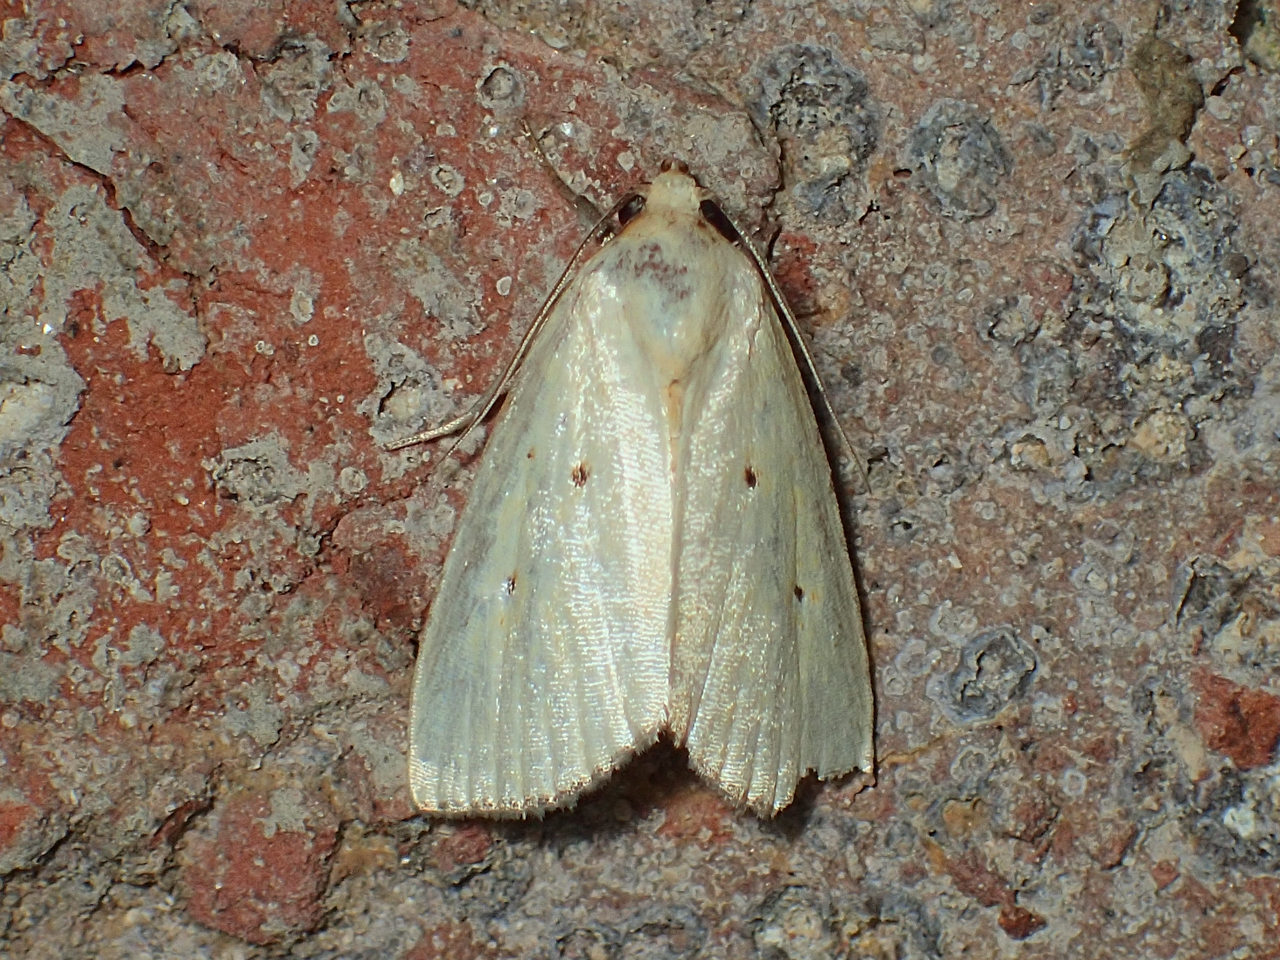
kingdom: Animalia
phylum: Arthropoda
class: Insecta
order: Lepidoptera
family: Noctuidae
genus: Marimatha
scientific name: Marimatha nigrofimbria
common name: Black-bordered lemon moth
